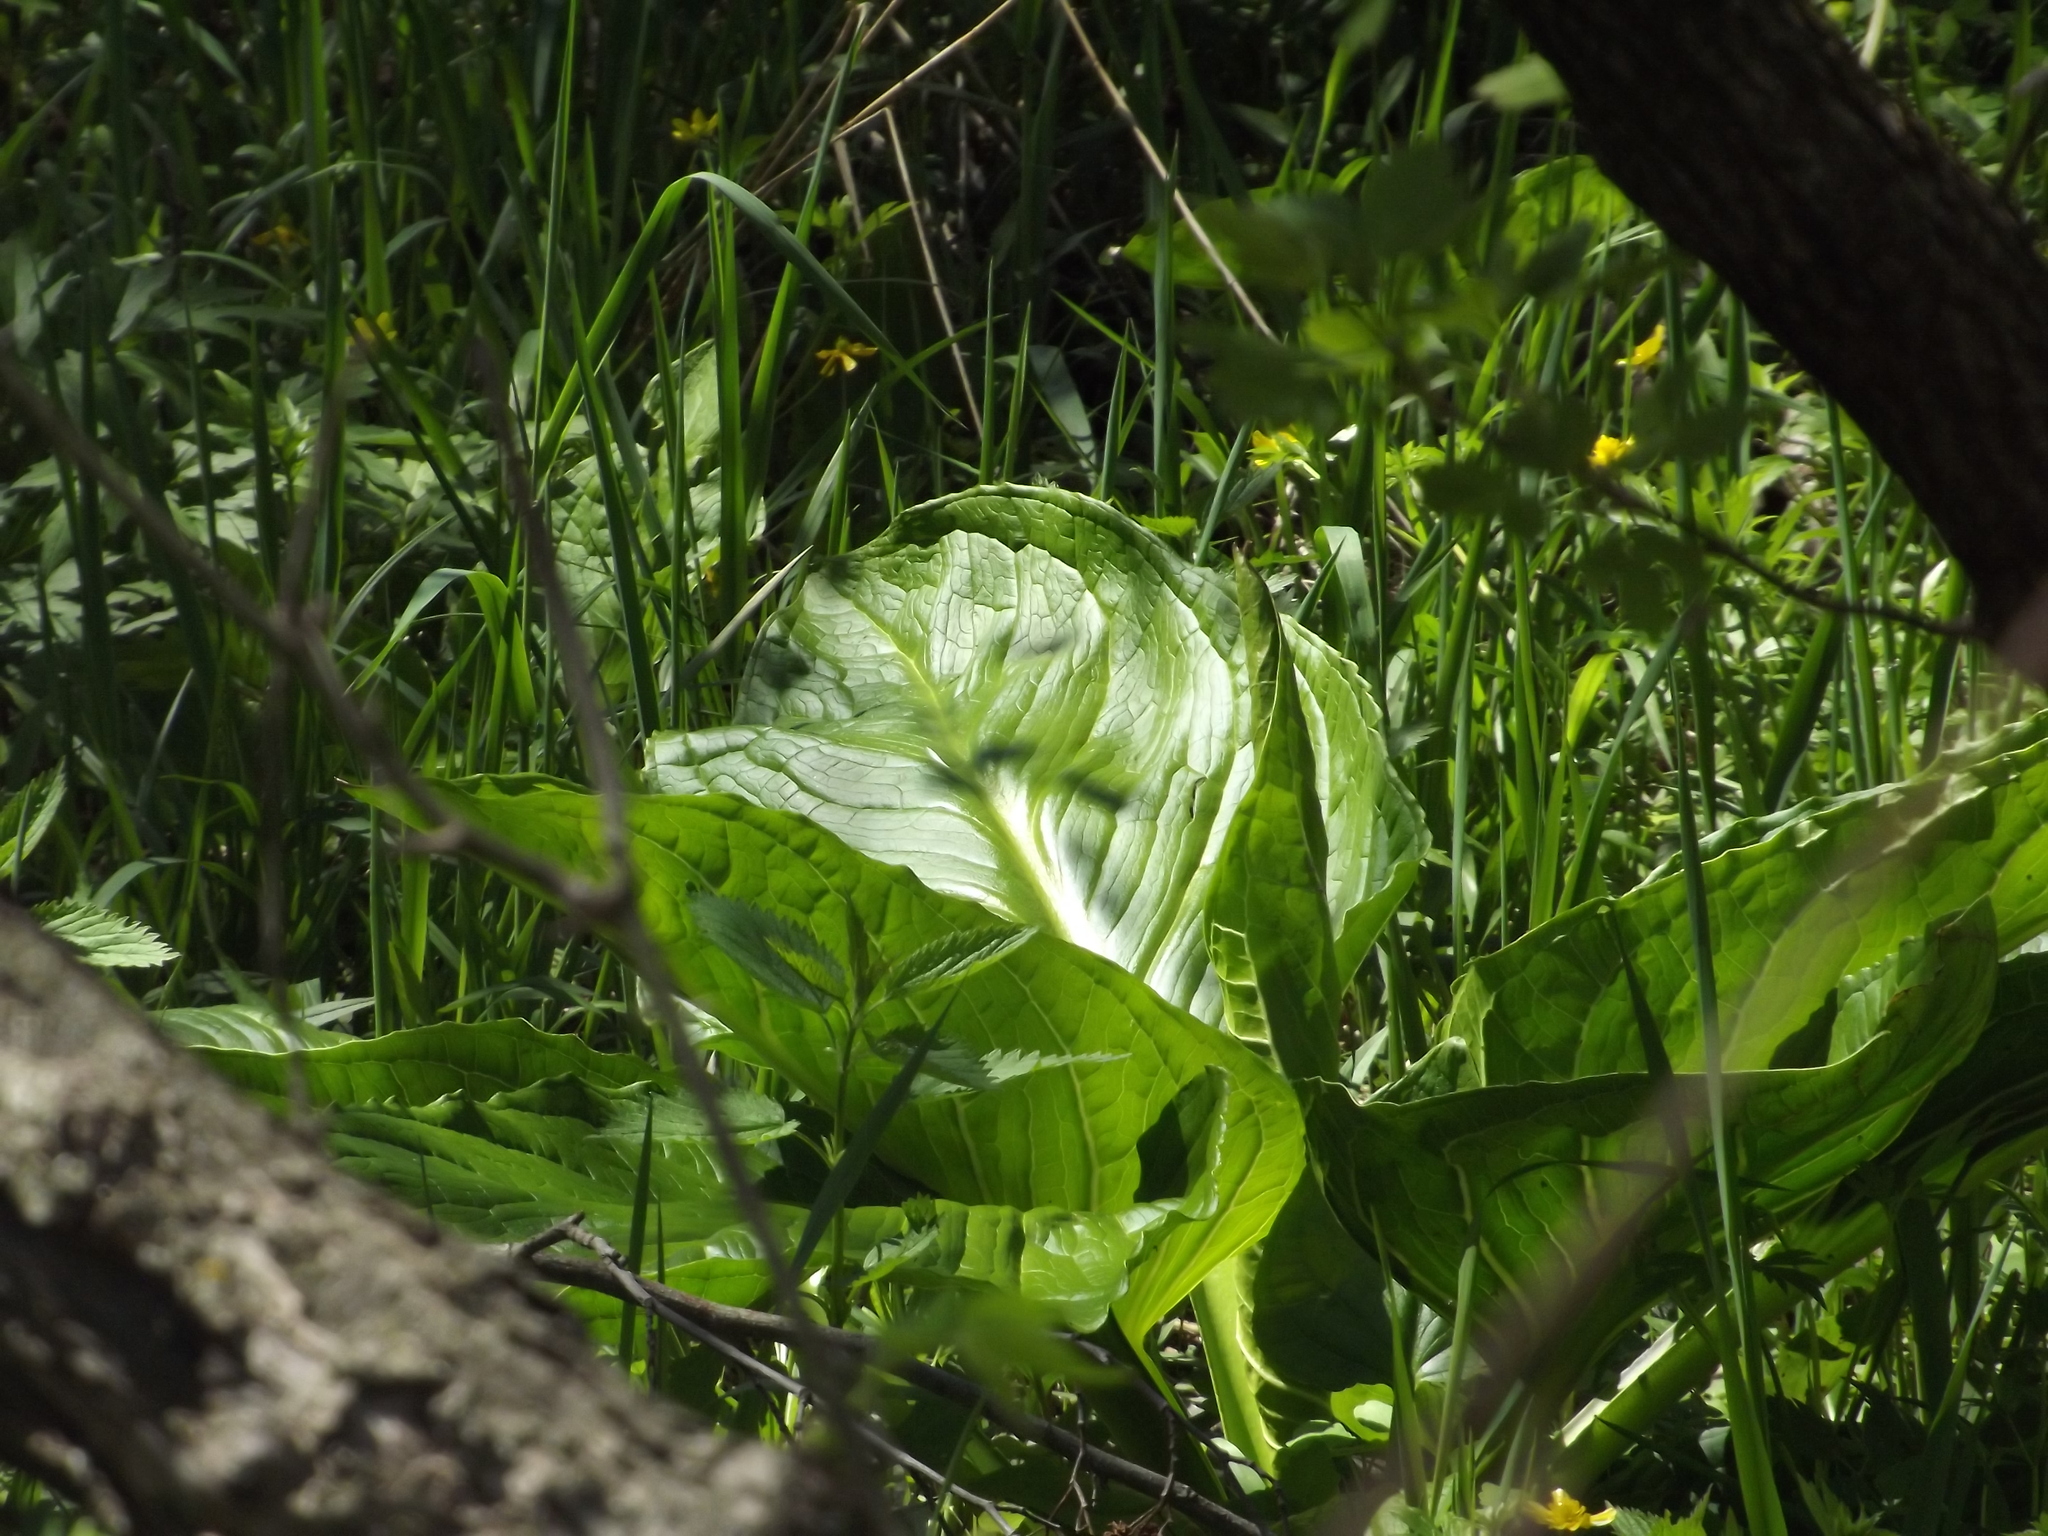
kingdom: Plantae
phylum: Tracheophyta
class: Liliopsida
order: Alismatales
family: Araceae
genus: Symplocarpus
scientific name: Symplocarpus foetidus
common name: Eastern skunk cabbage
